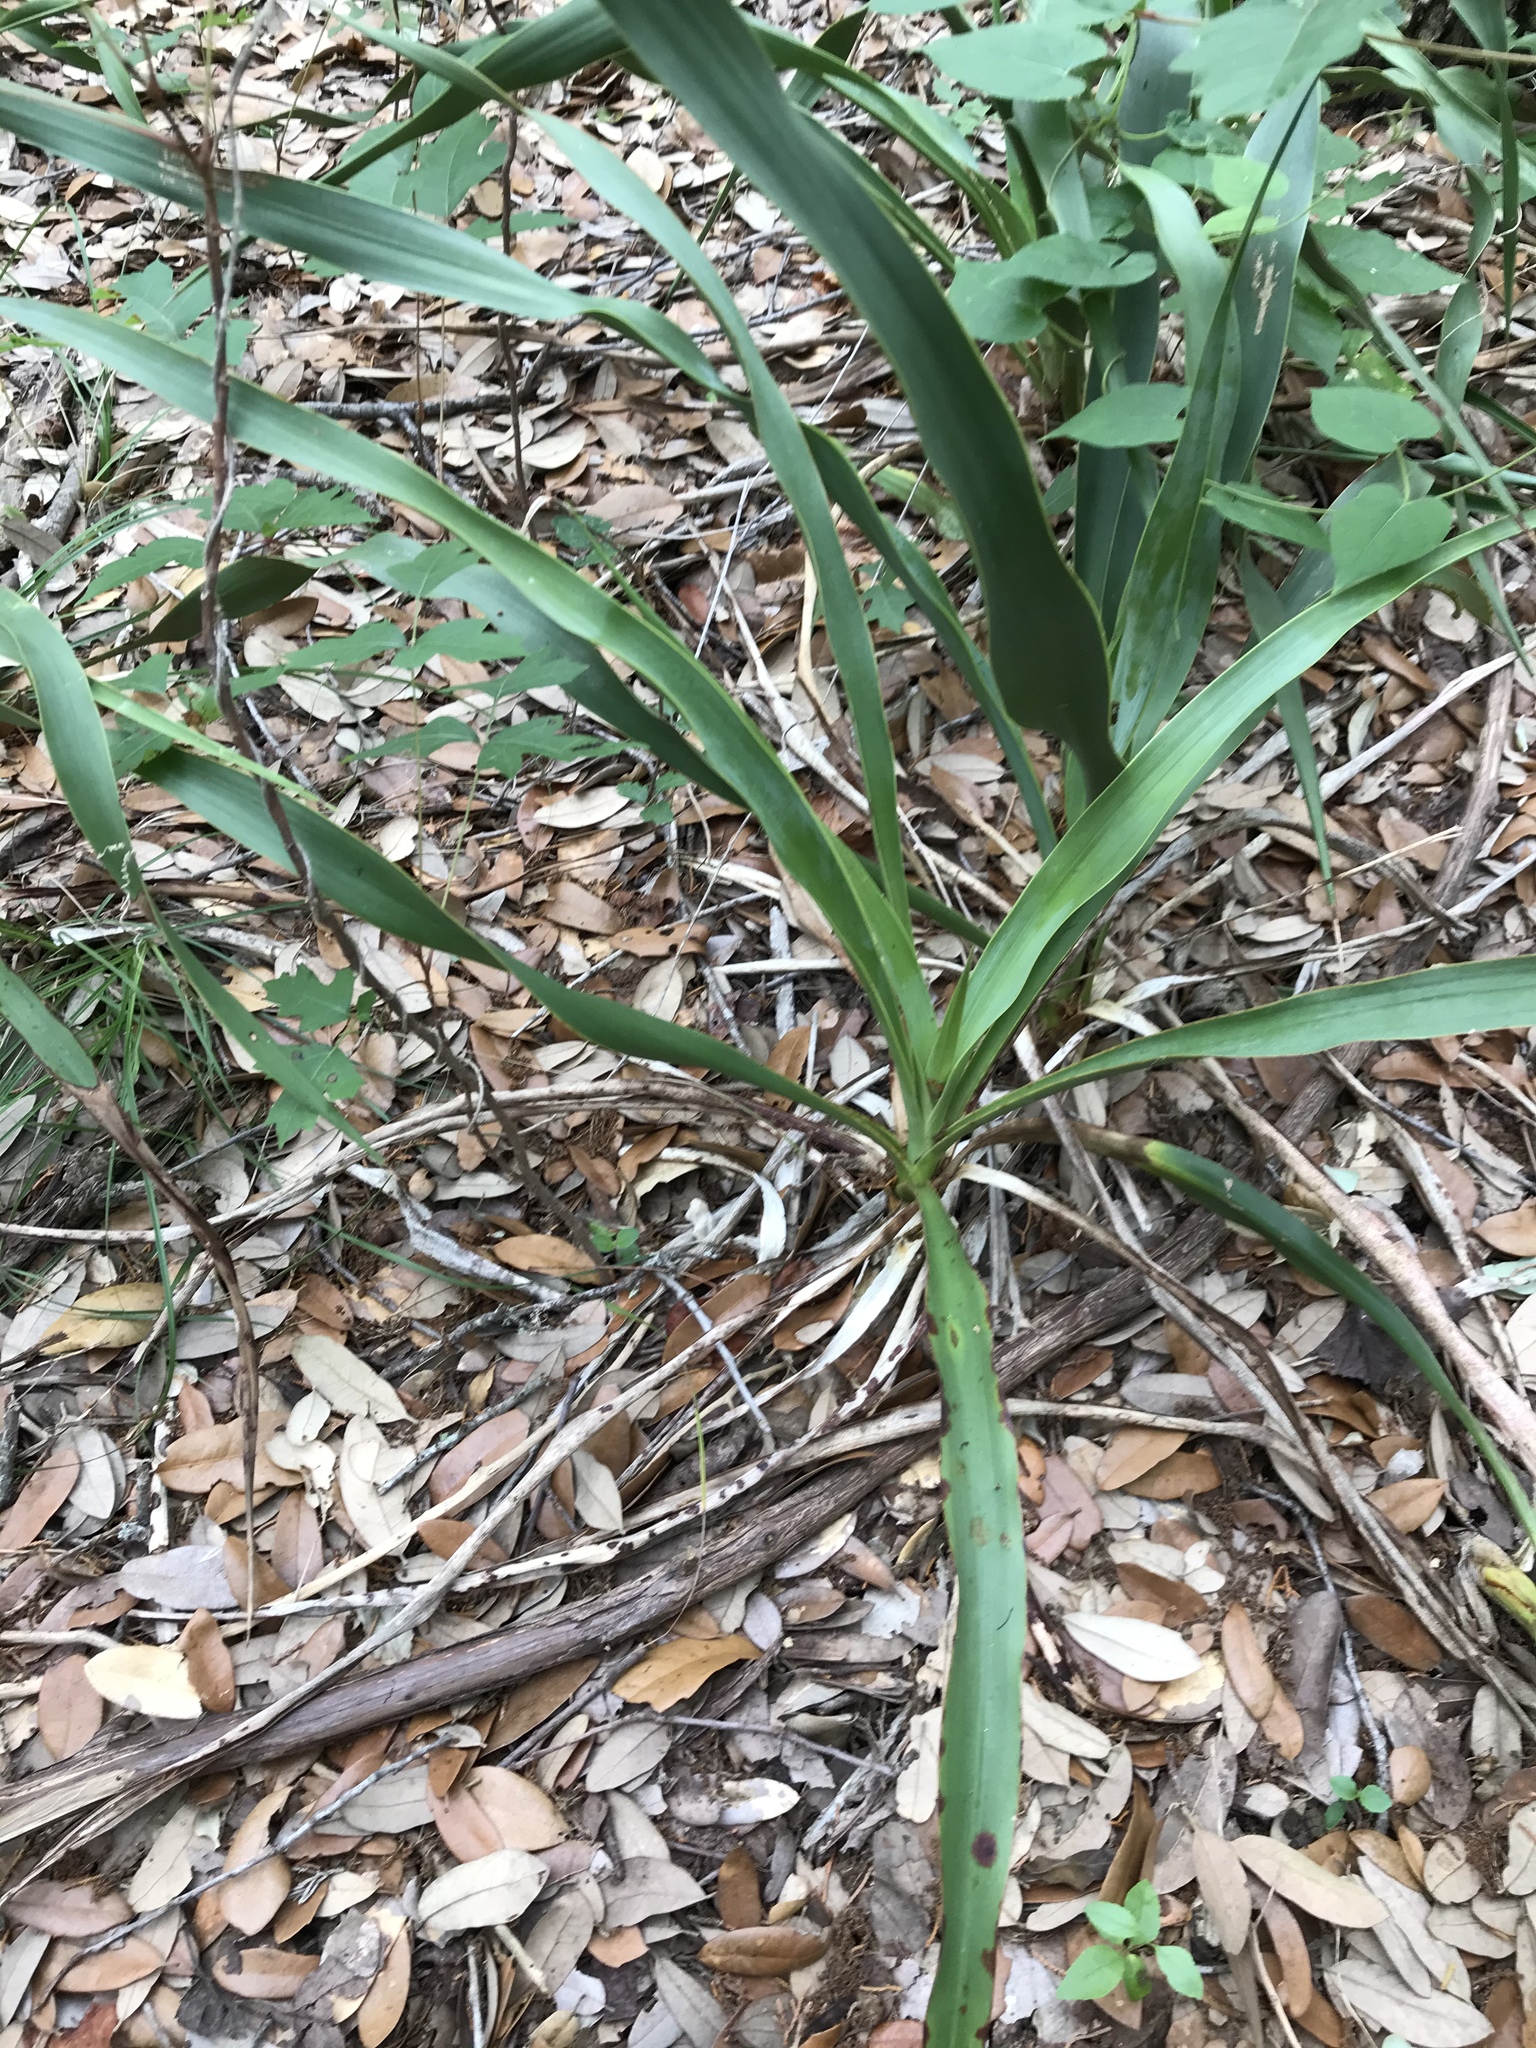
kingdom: Plantae
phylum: Tracheophyta
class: Liliopsida
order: Asparagales
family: Asparagaceae
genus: Yucca
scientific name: Yucca rupicola
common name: Twisted-leaf spanish-dagger
